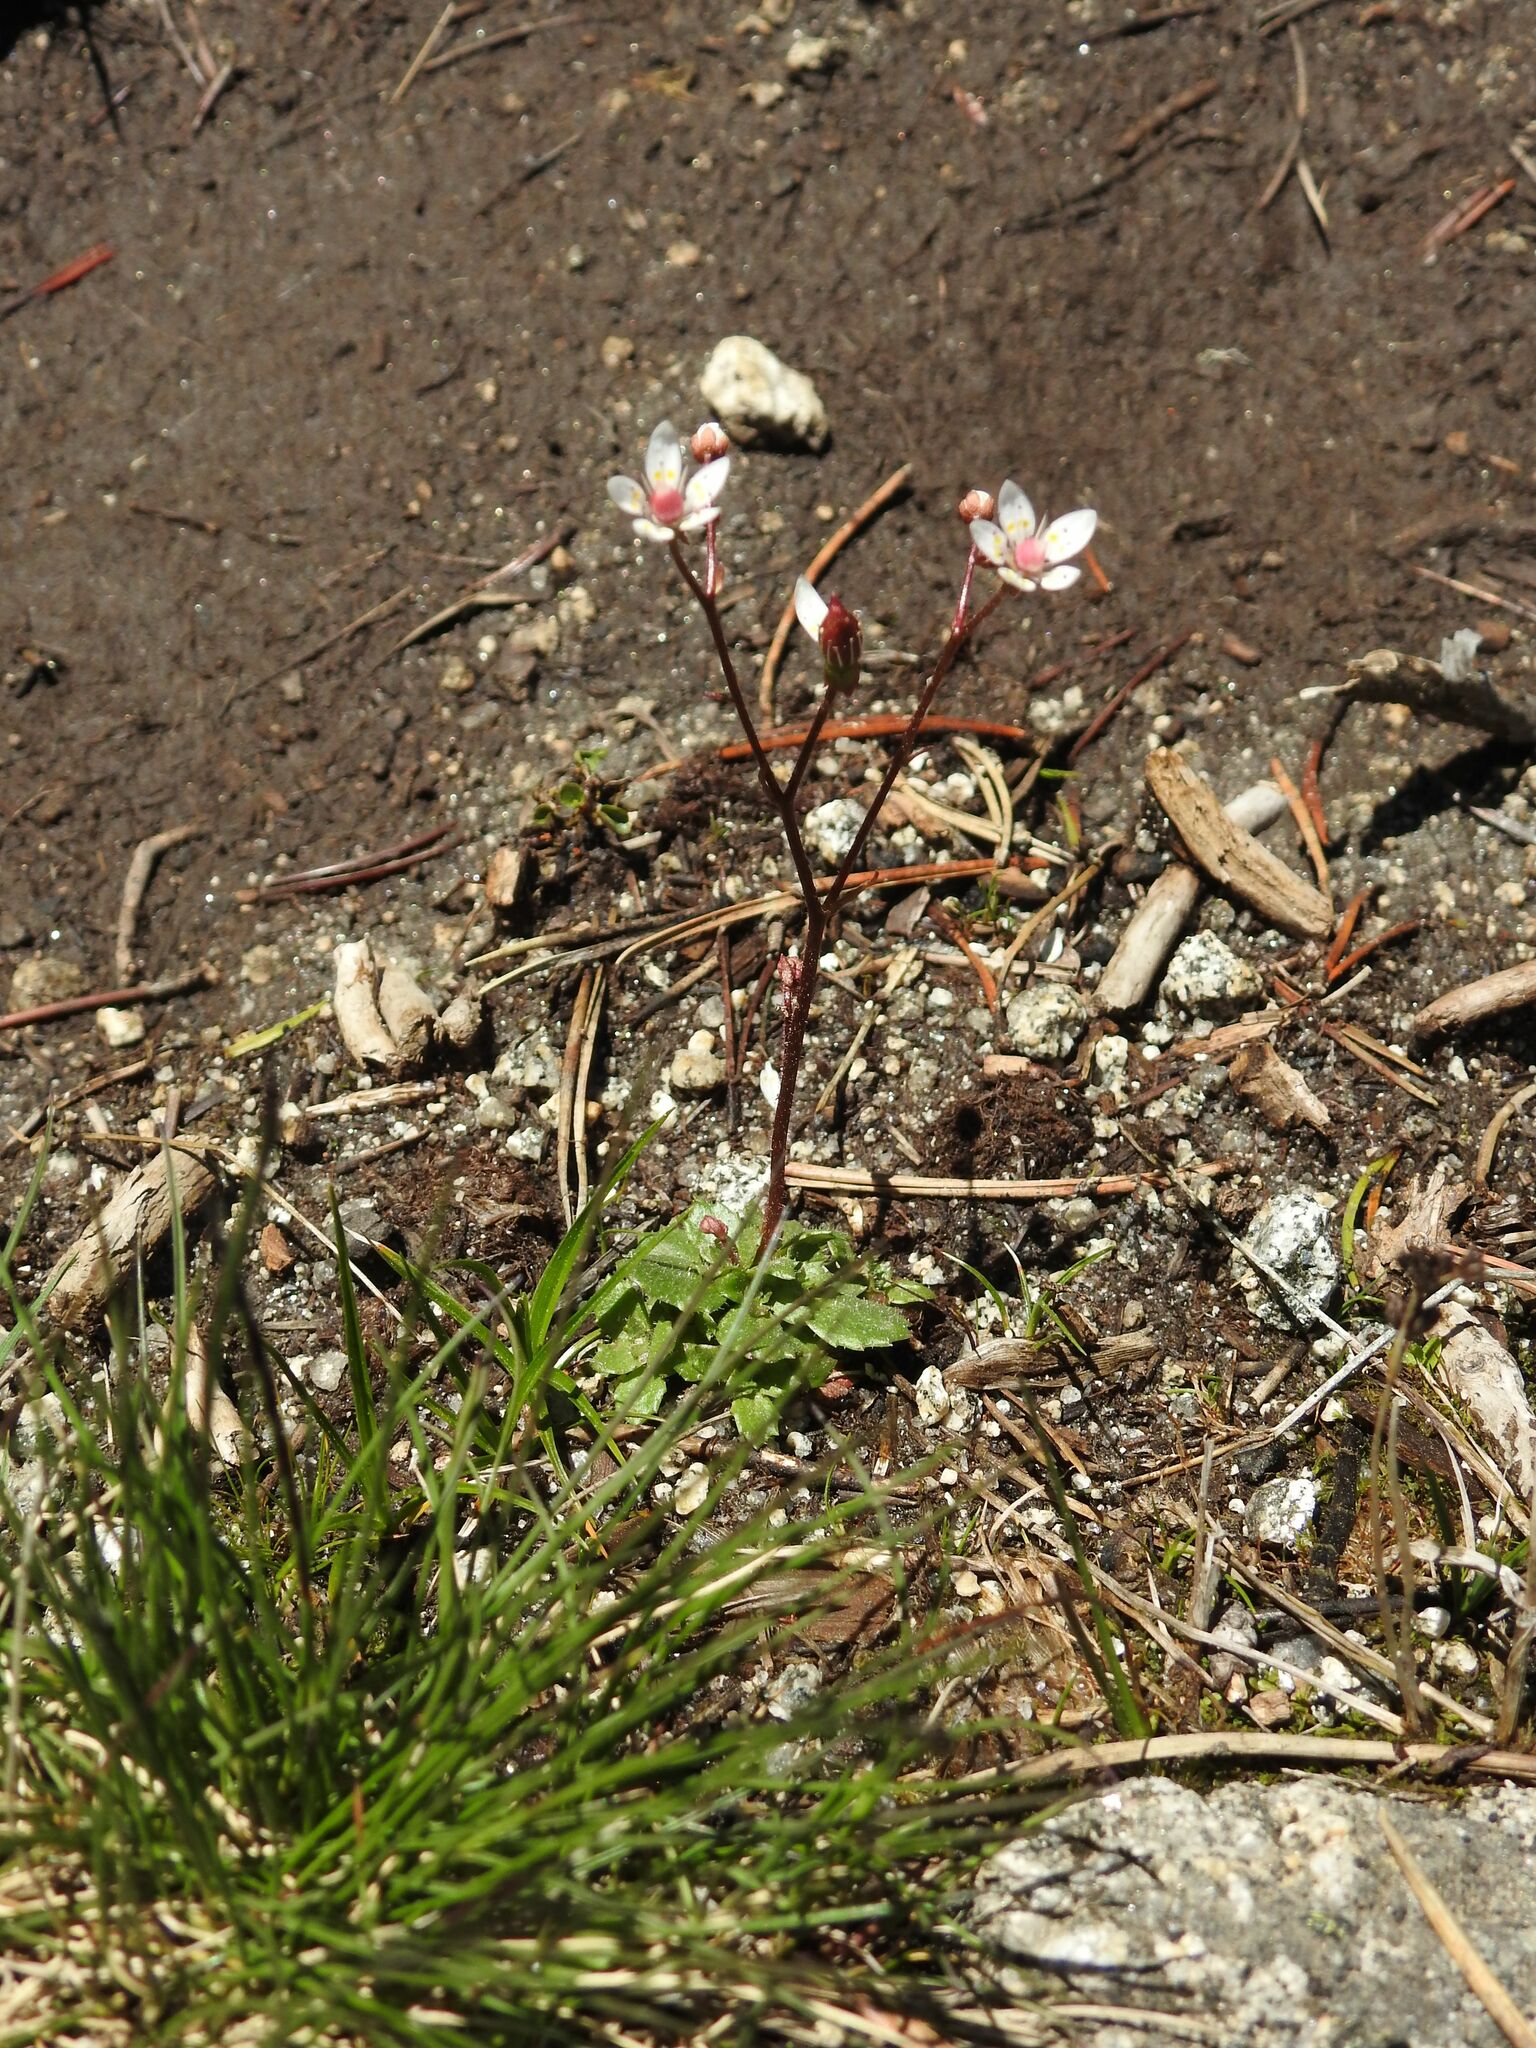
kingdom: Plantae
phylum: Tracheophyta
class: Magnoliopsida
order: Saxifragales
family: Saxifragaceae
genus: Micranthes
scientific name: Micranthes stellaris
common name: Starry saxifrage
